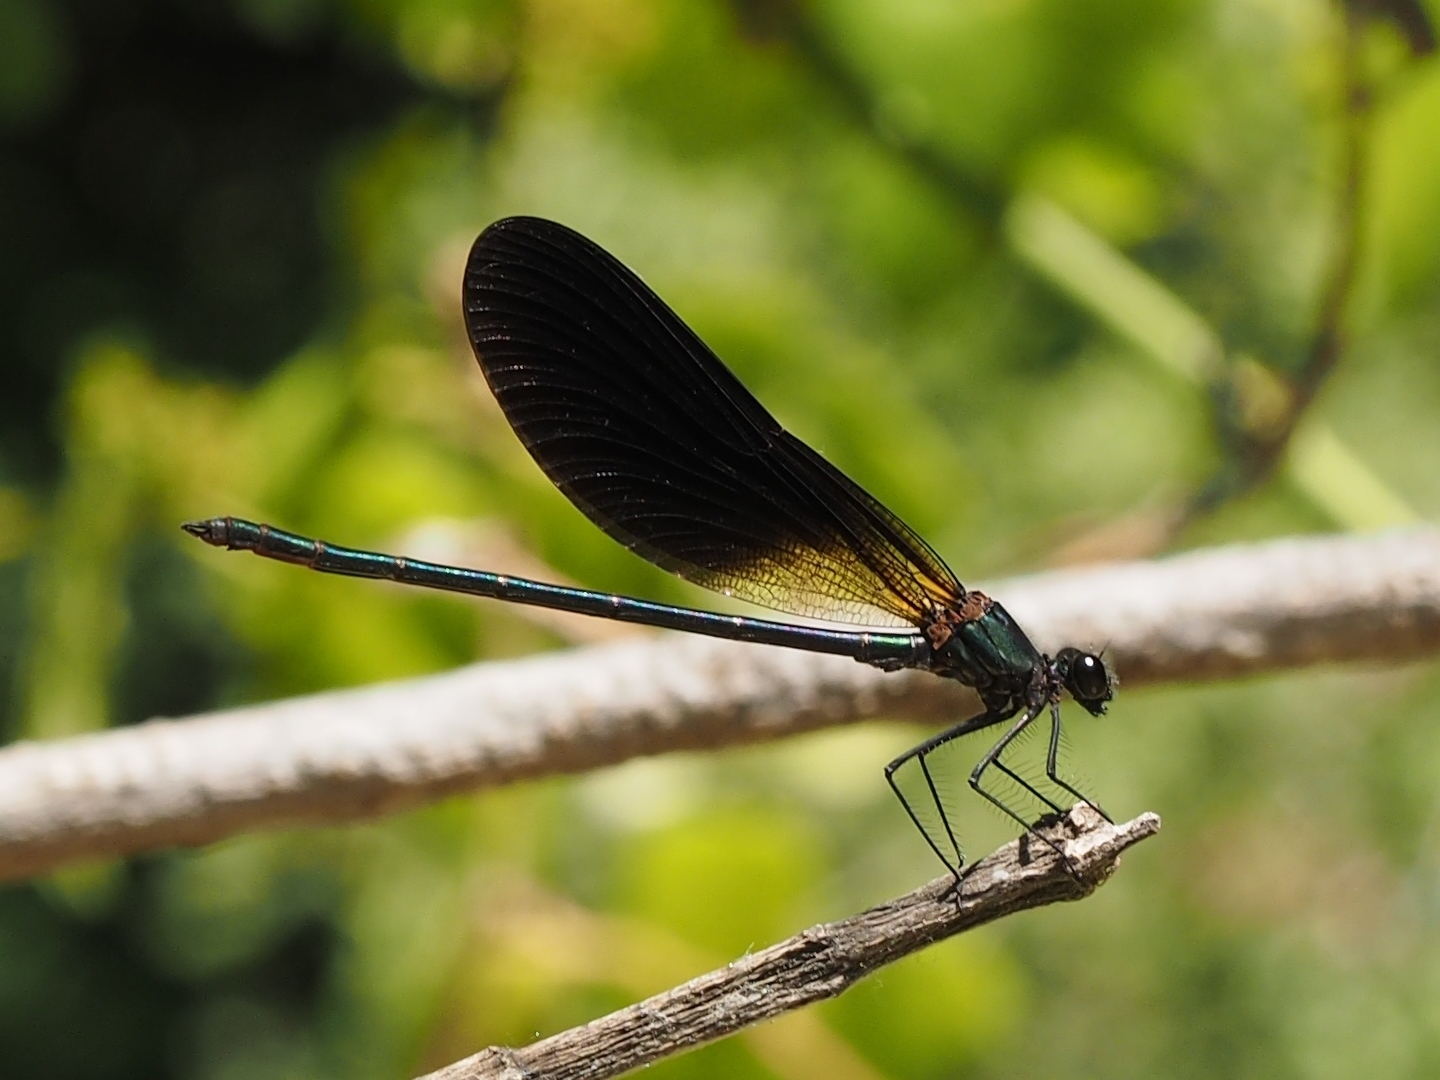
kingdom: Animalia
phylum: Arthropoda
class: Insecta
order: Odonata
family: Calopterygidae
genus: Calopteryx
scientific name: Calopteryx haemorrhoidalis
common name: Copper demoiselle
